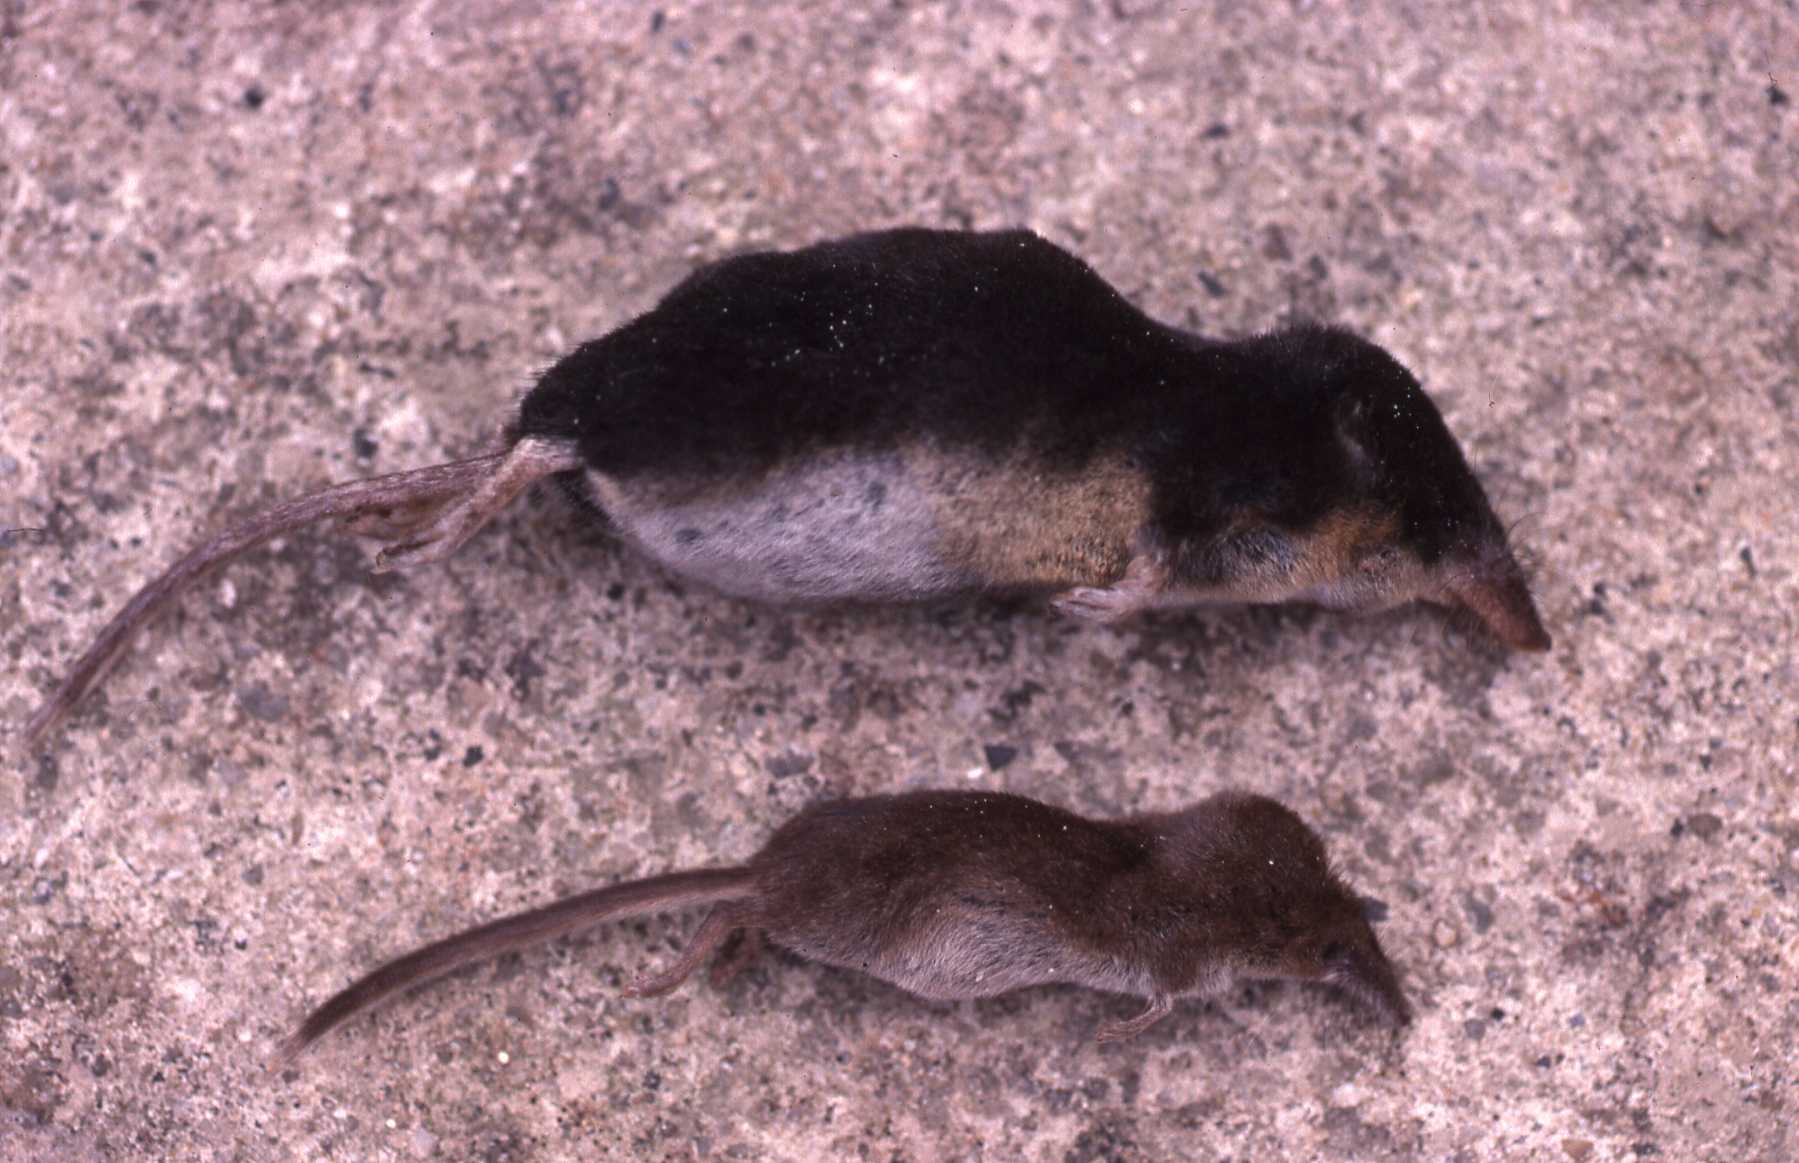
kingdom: Animalia
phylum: Chordata
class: Mammalia
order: Soricomorpha
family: Soricidae
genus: Sorex
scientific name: Sorex minutus
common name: Eurasian pygmy shrew
